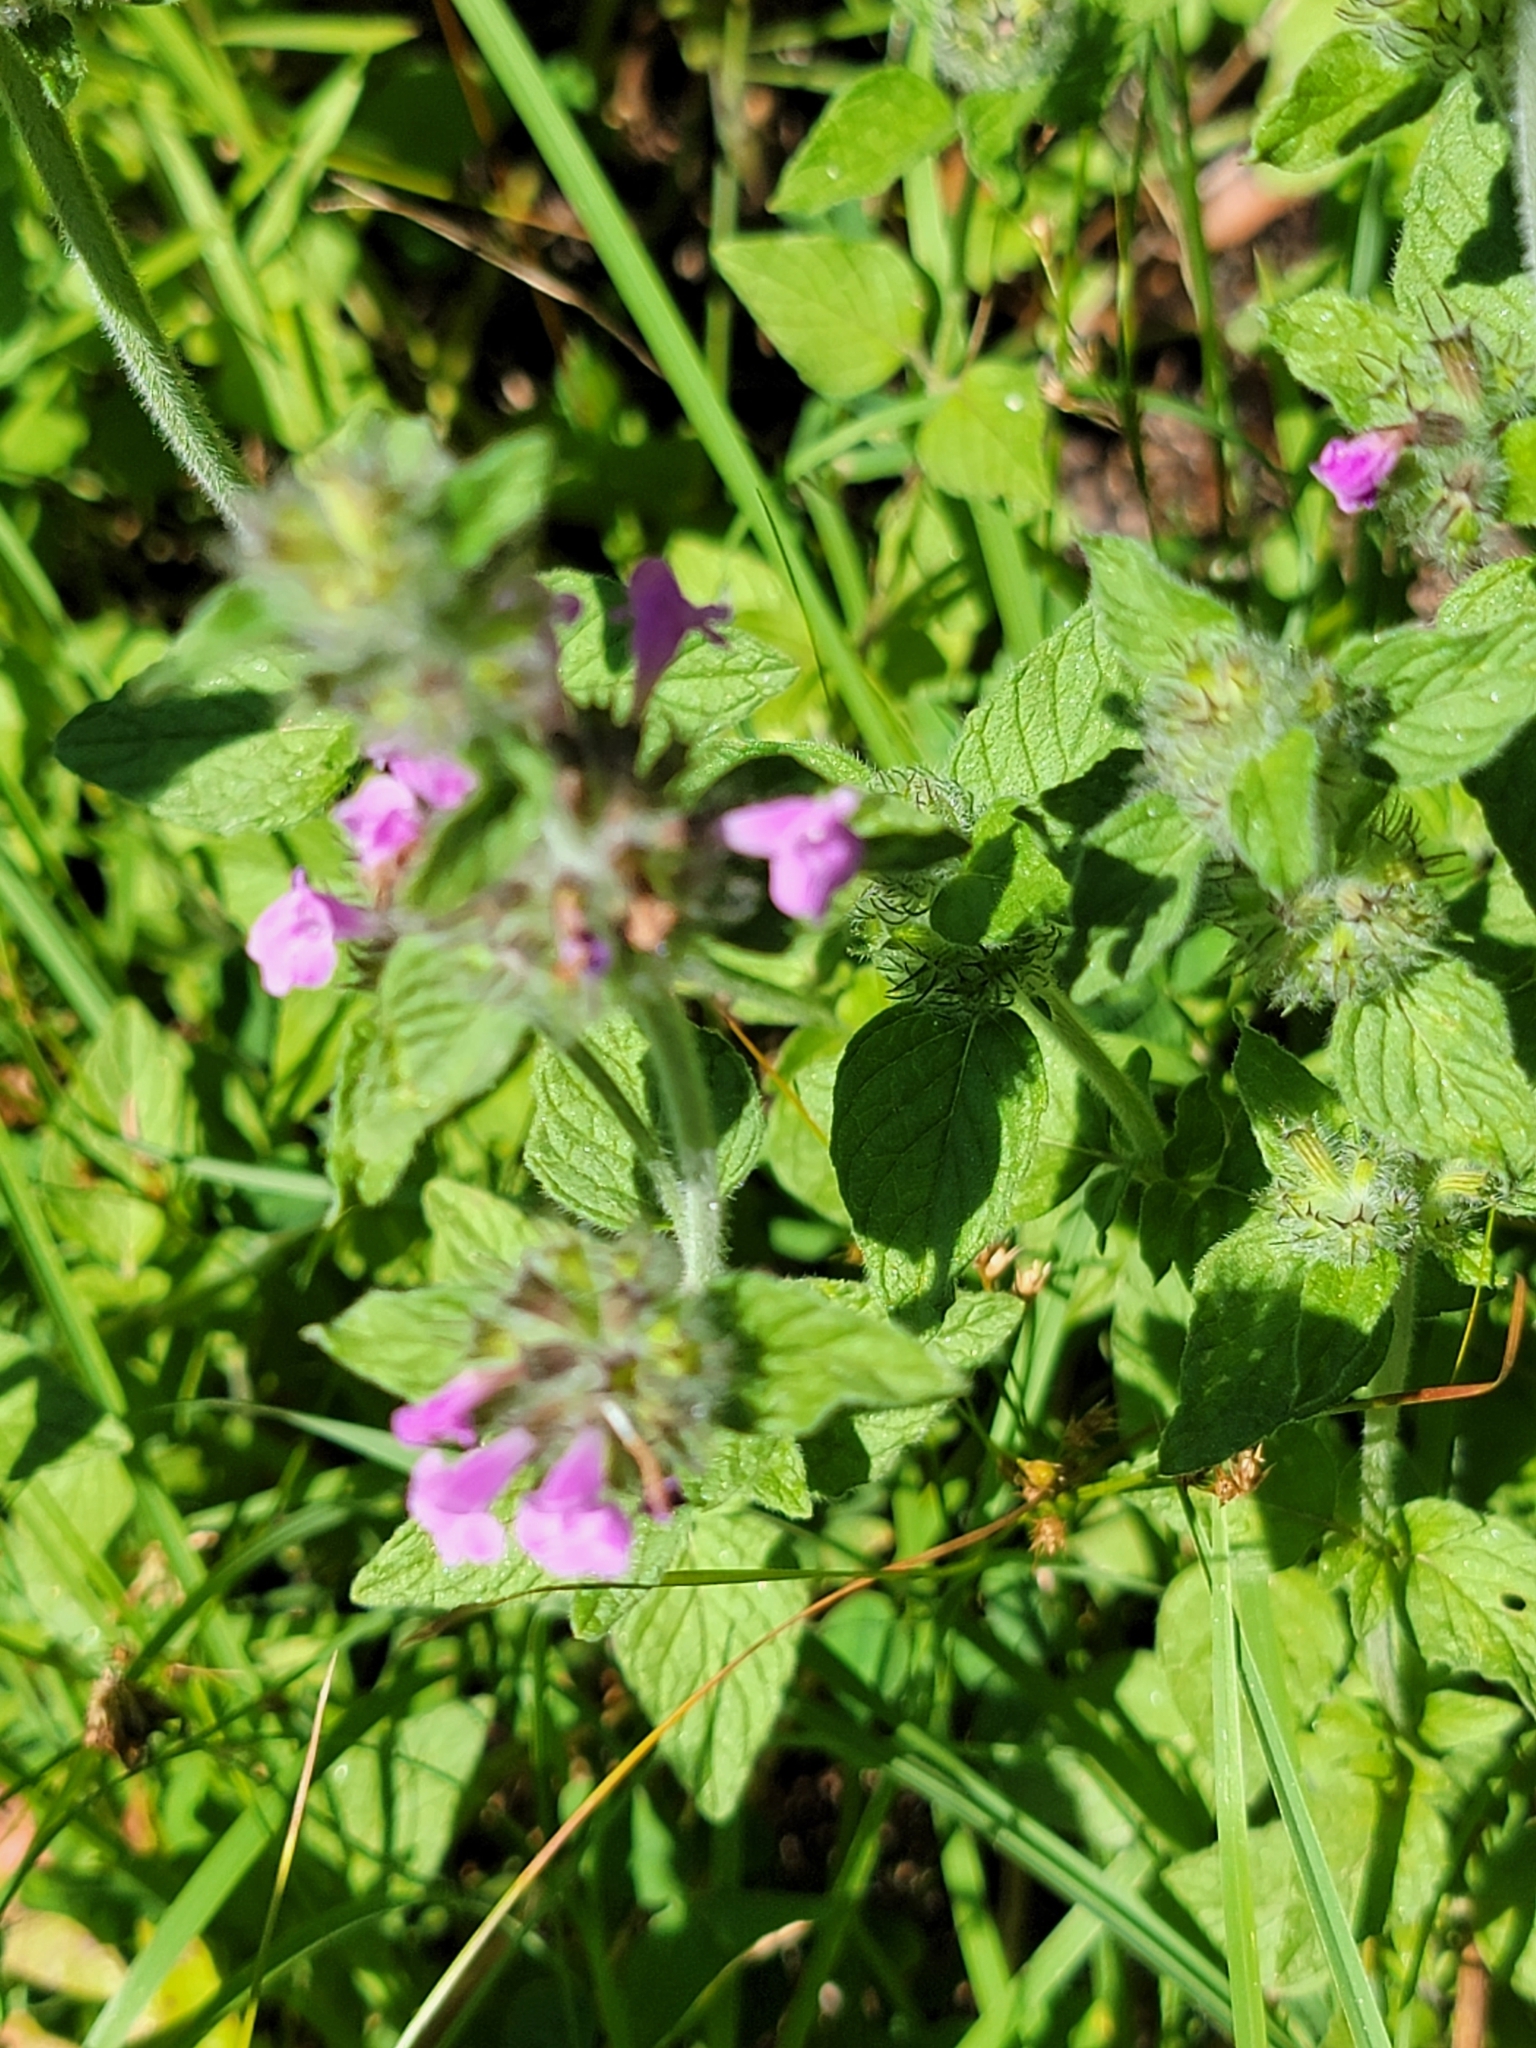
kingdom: Plantae
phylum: Tracheophyta
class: Magnoliopsida
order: Lamiales
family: Lamiaceae
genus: Clinopodium
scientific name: Clinopodium vulgare
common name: Wild basil
